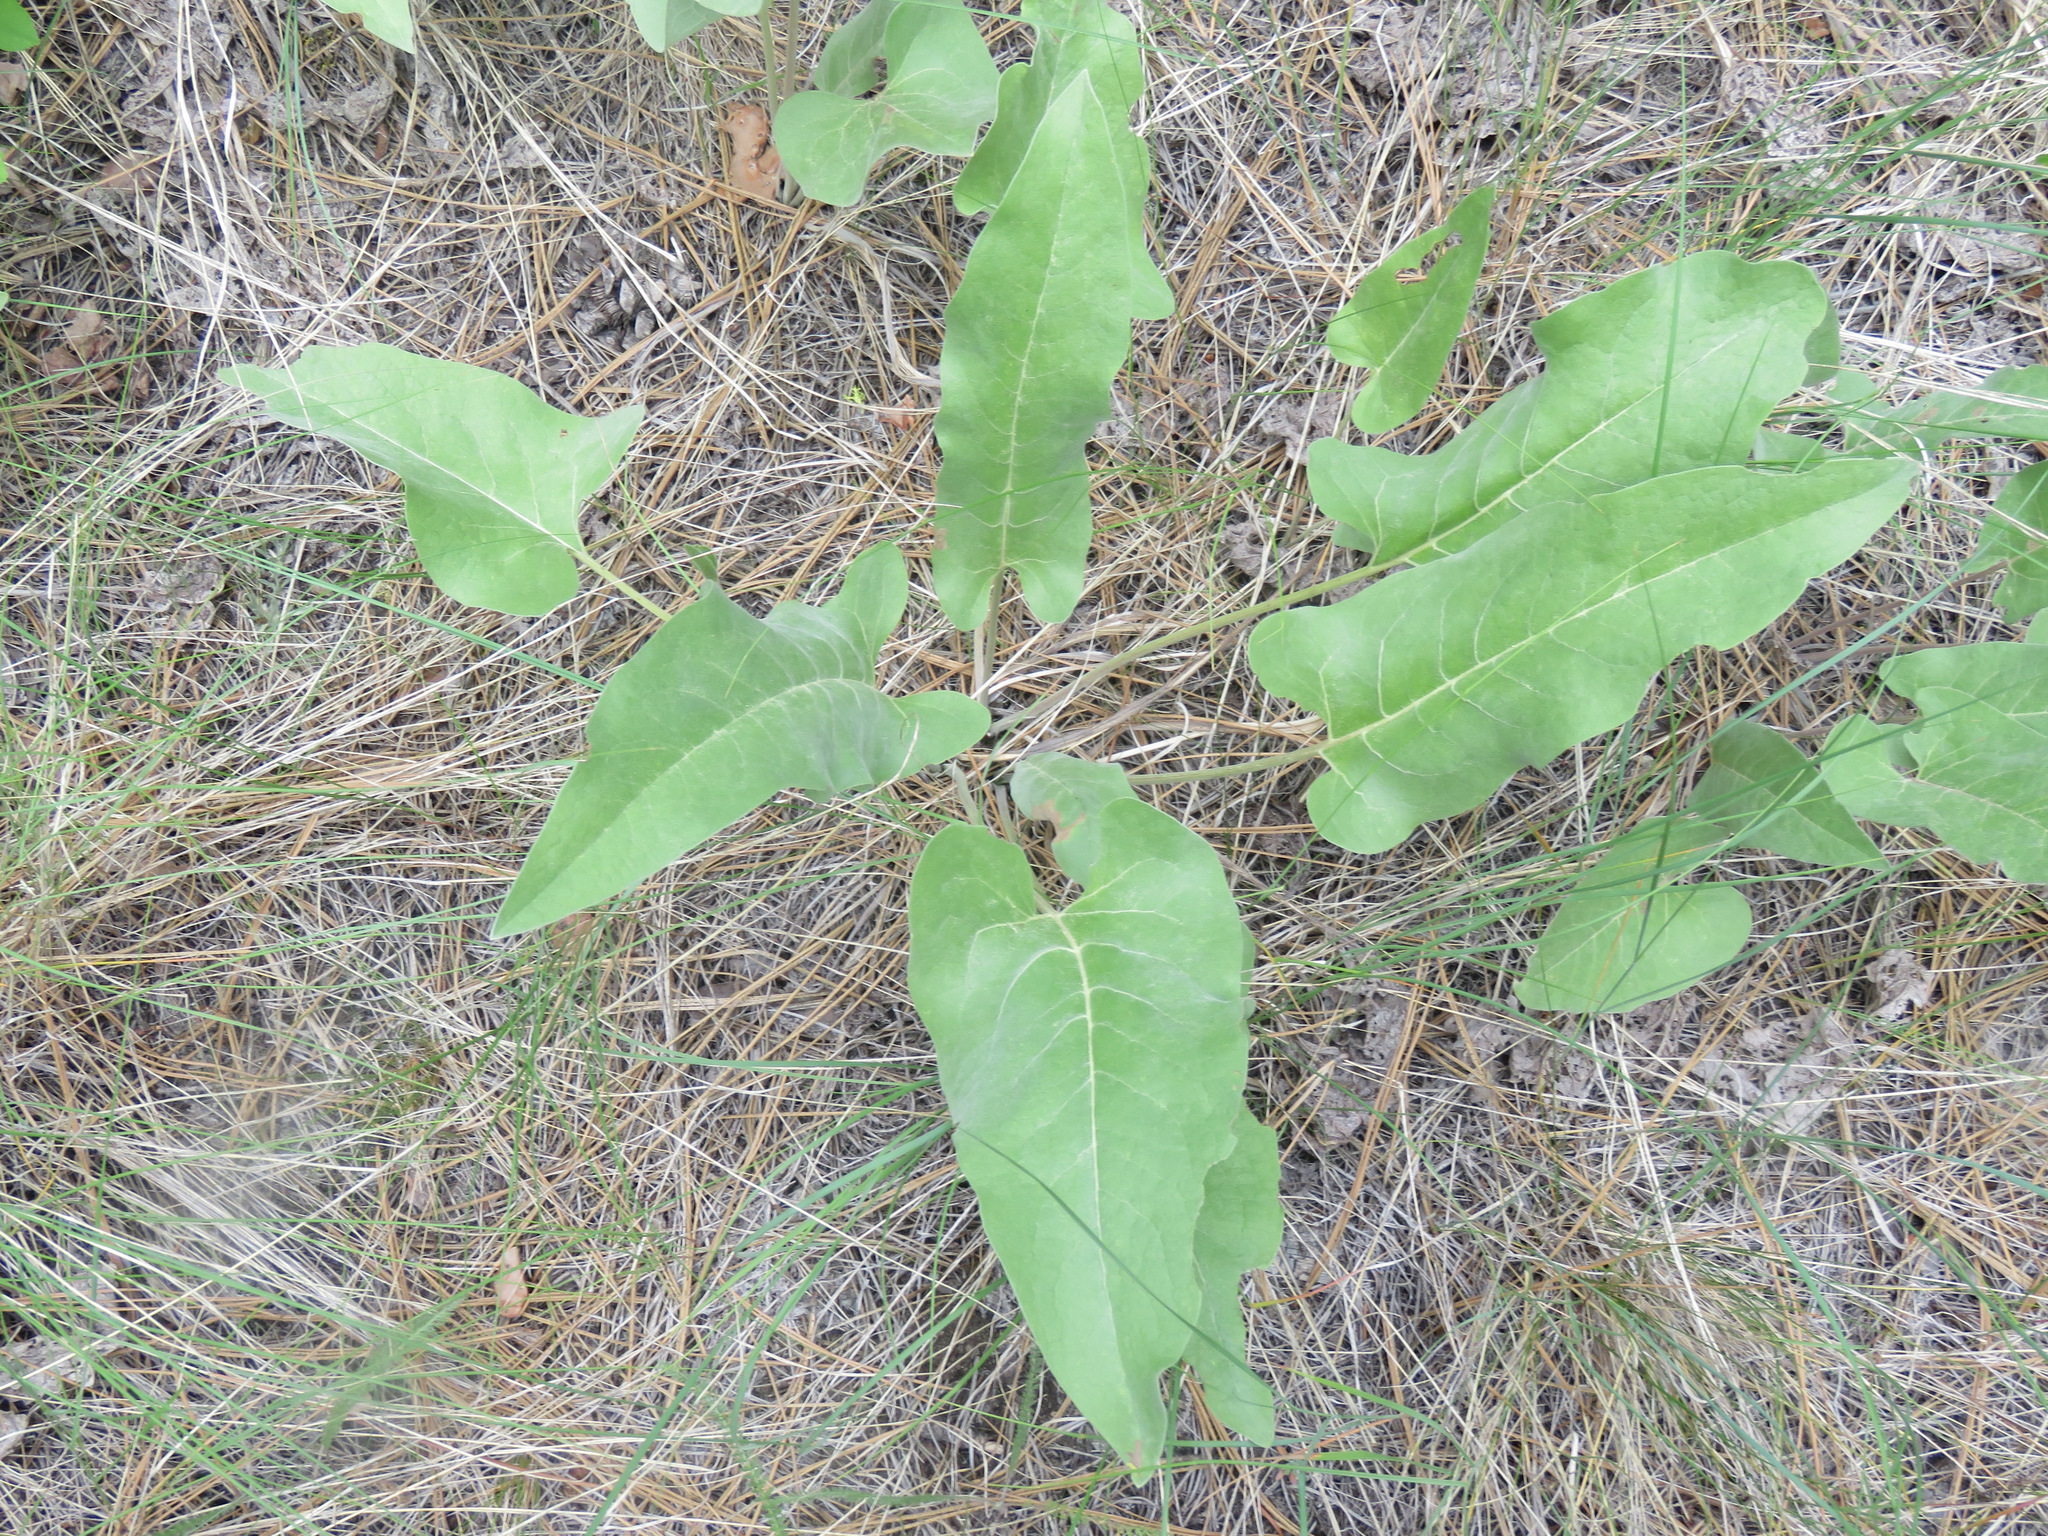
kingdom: Plantae
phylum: Tracheophyta
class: Magnoliopsida
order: Asterales
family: Asteraceae
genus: Wyethia
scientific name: Wyethia sagittata
